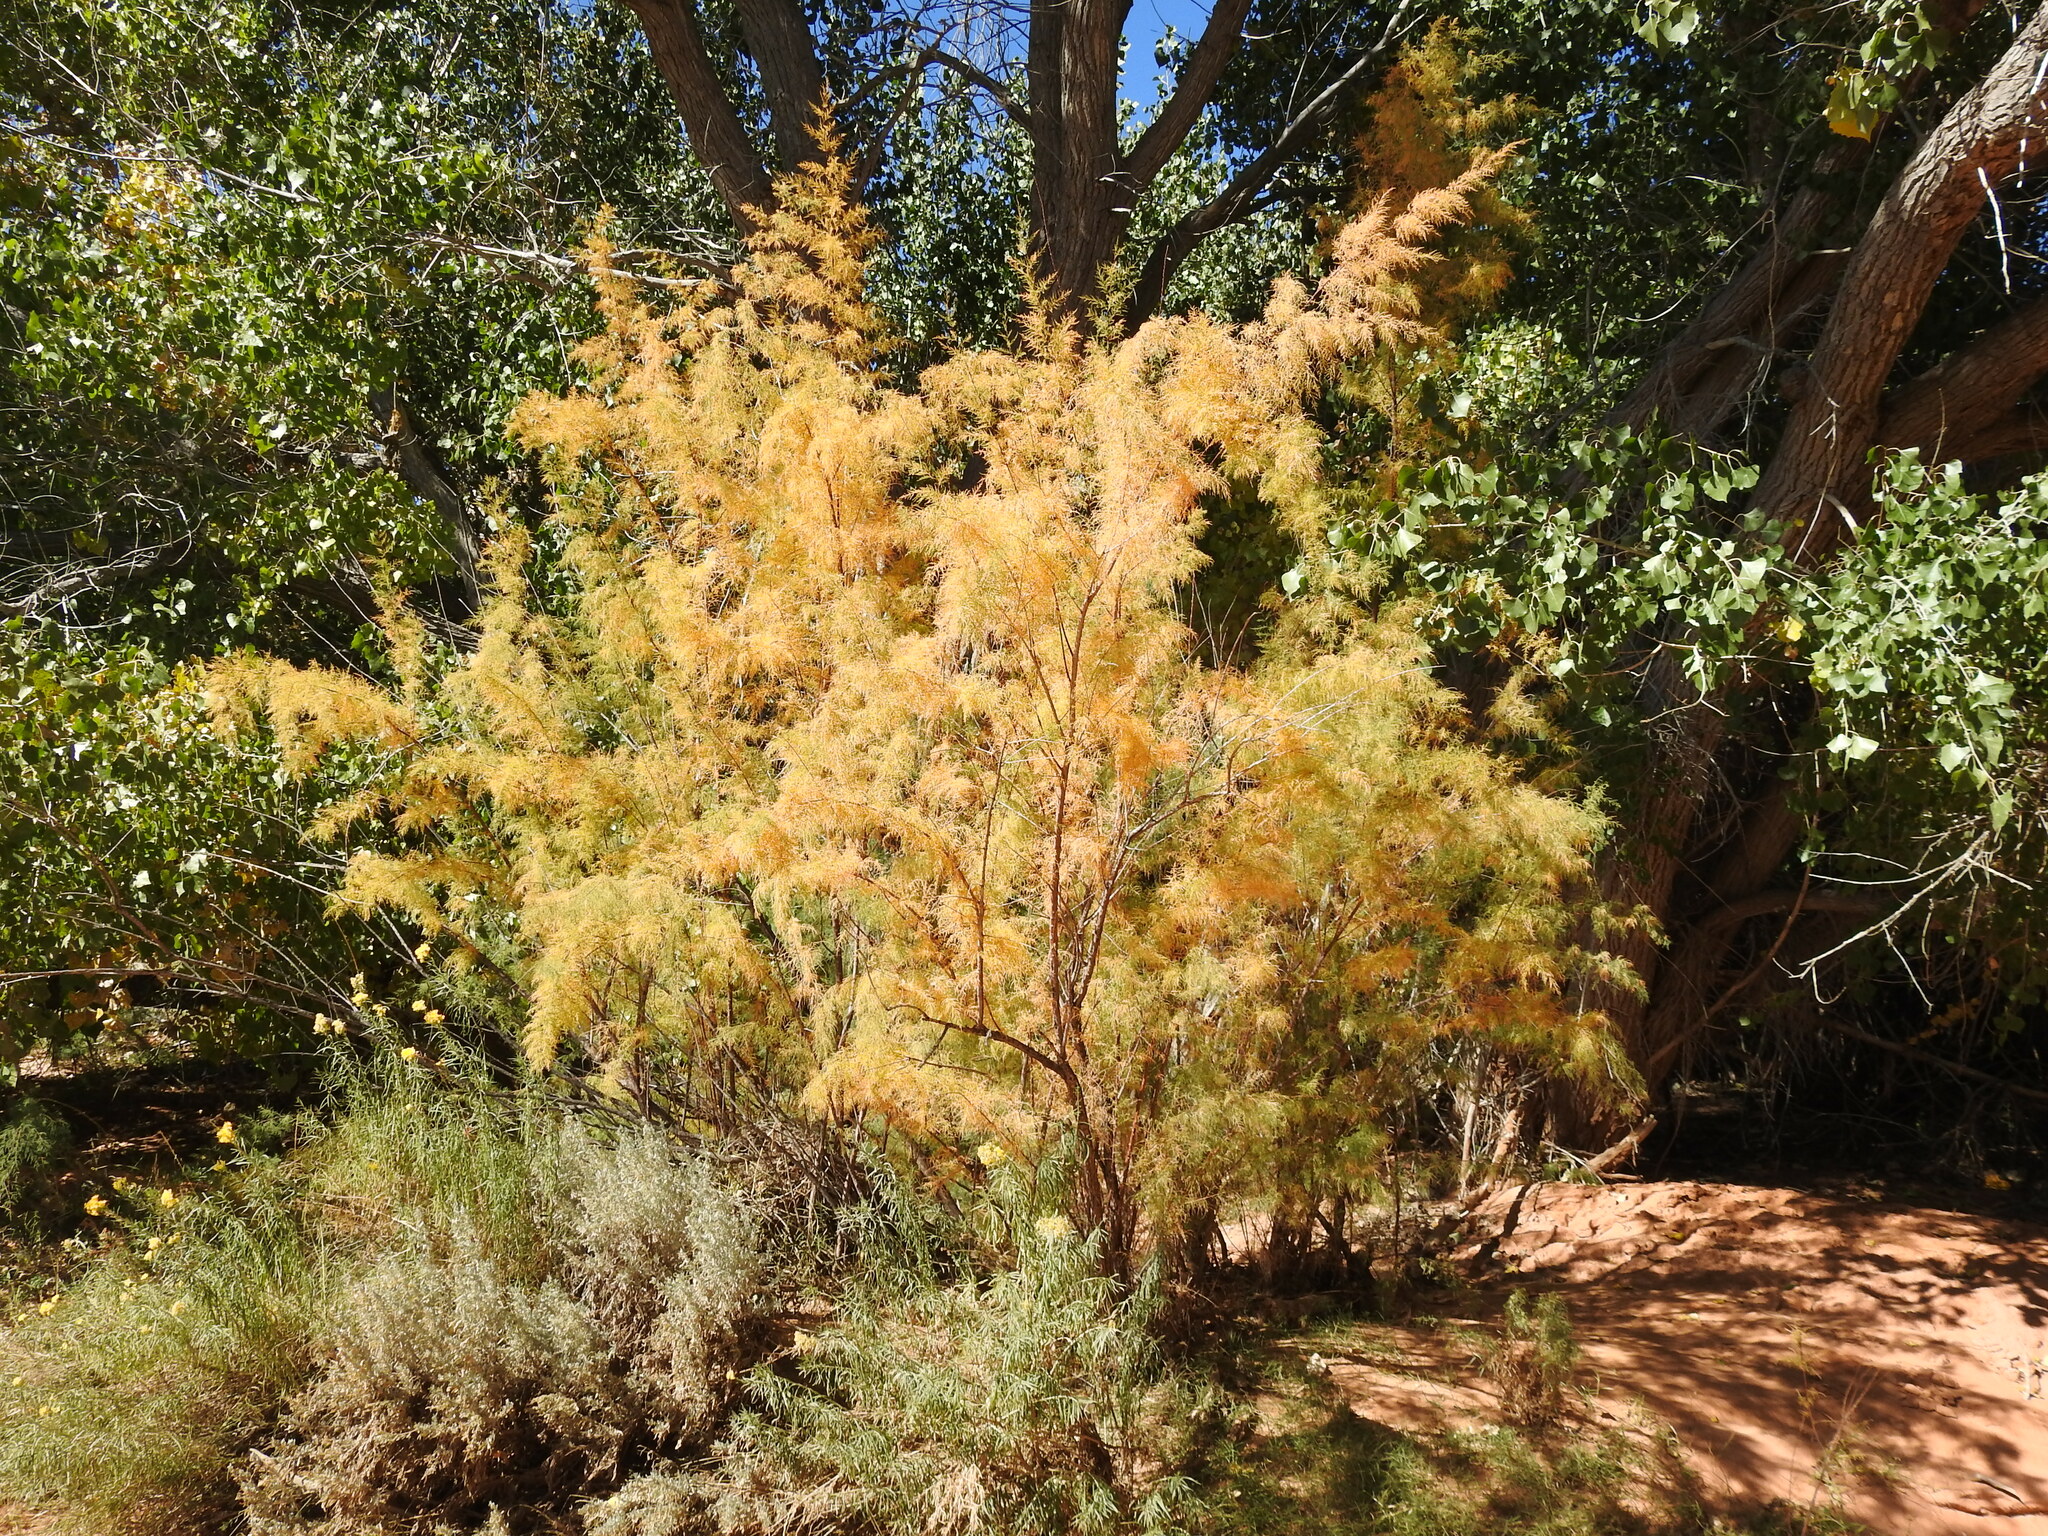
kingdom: Plantae
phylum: Tracheophyta
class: Magnoliopsida
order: Caryophyllales
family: Tamaricaceae
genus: Tamarix
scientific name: Tamarix
